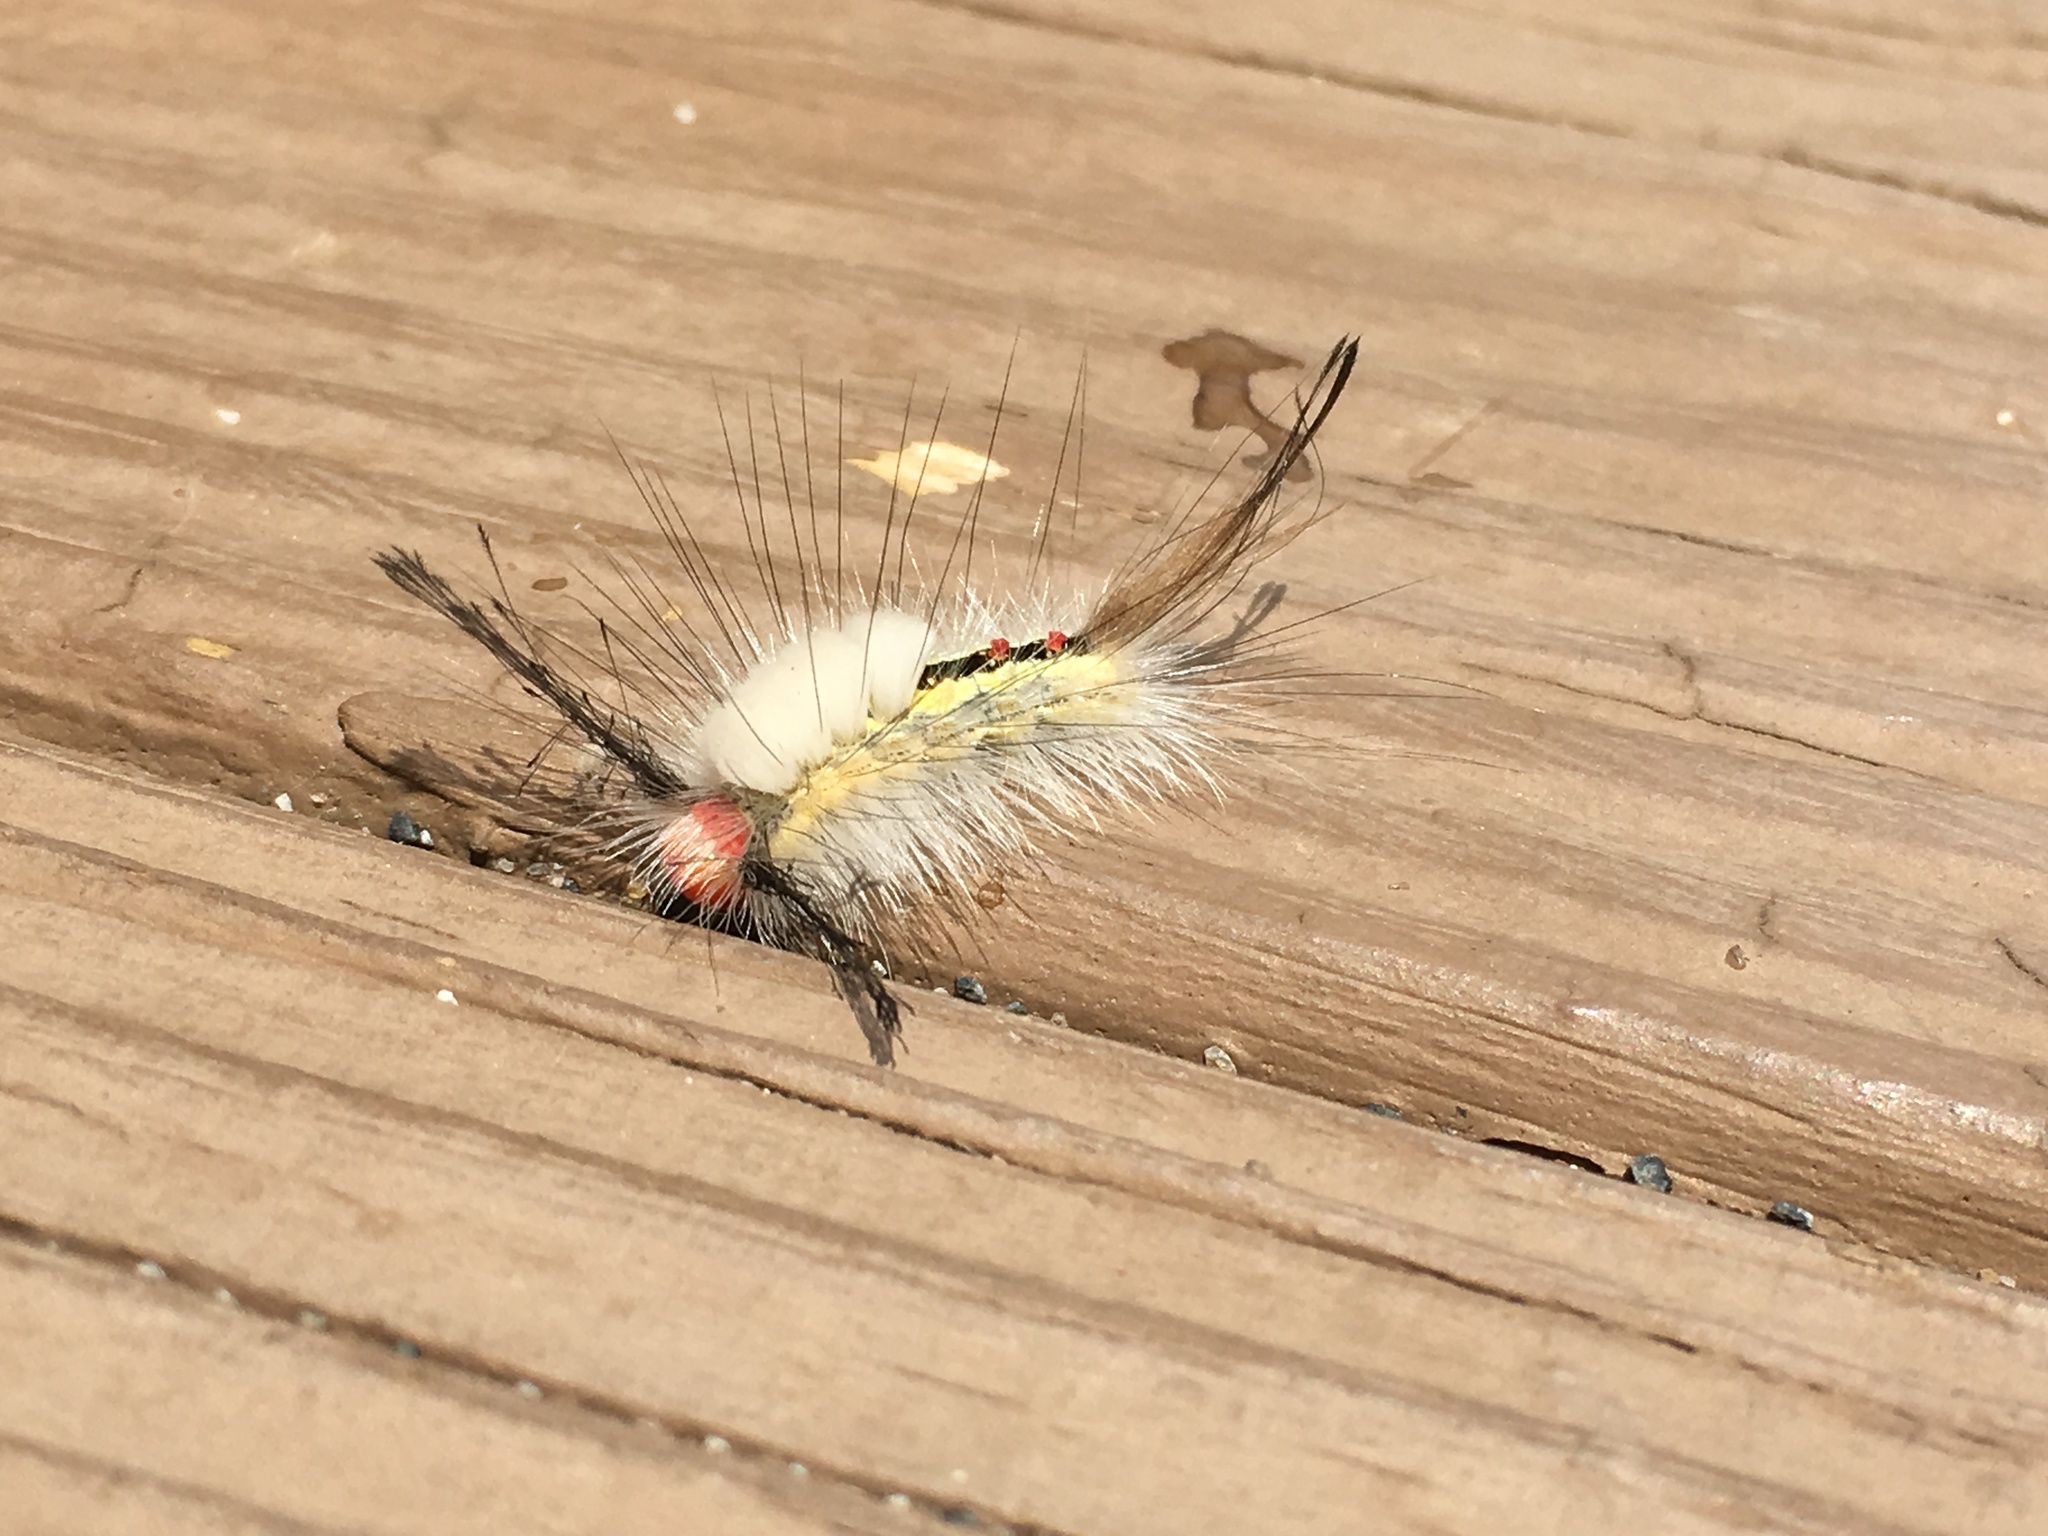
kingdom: Animalia
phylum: Arthropoda
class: Insecta
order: Lepidoptera
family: Erebidae
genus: Orgyia
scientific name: Orgyia leucostigma
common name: White-marked tussock moth
